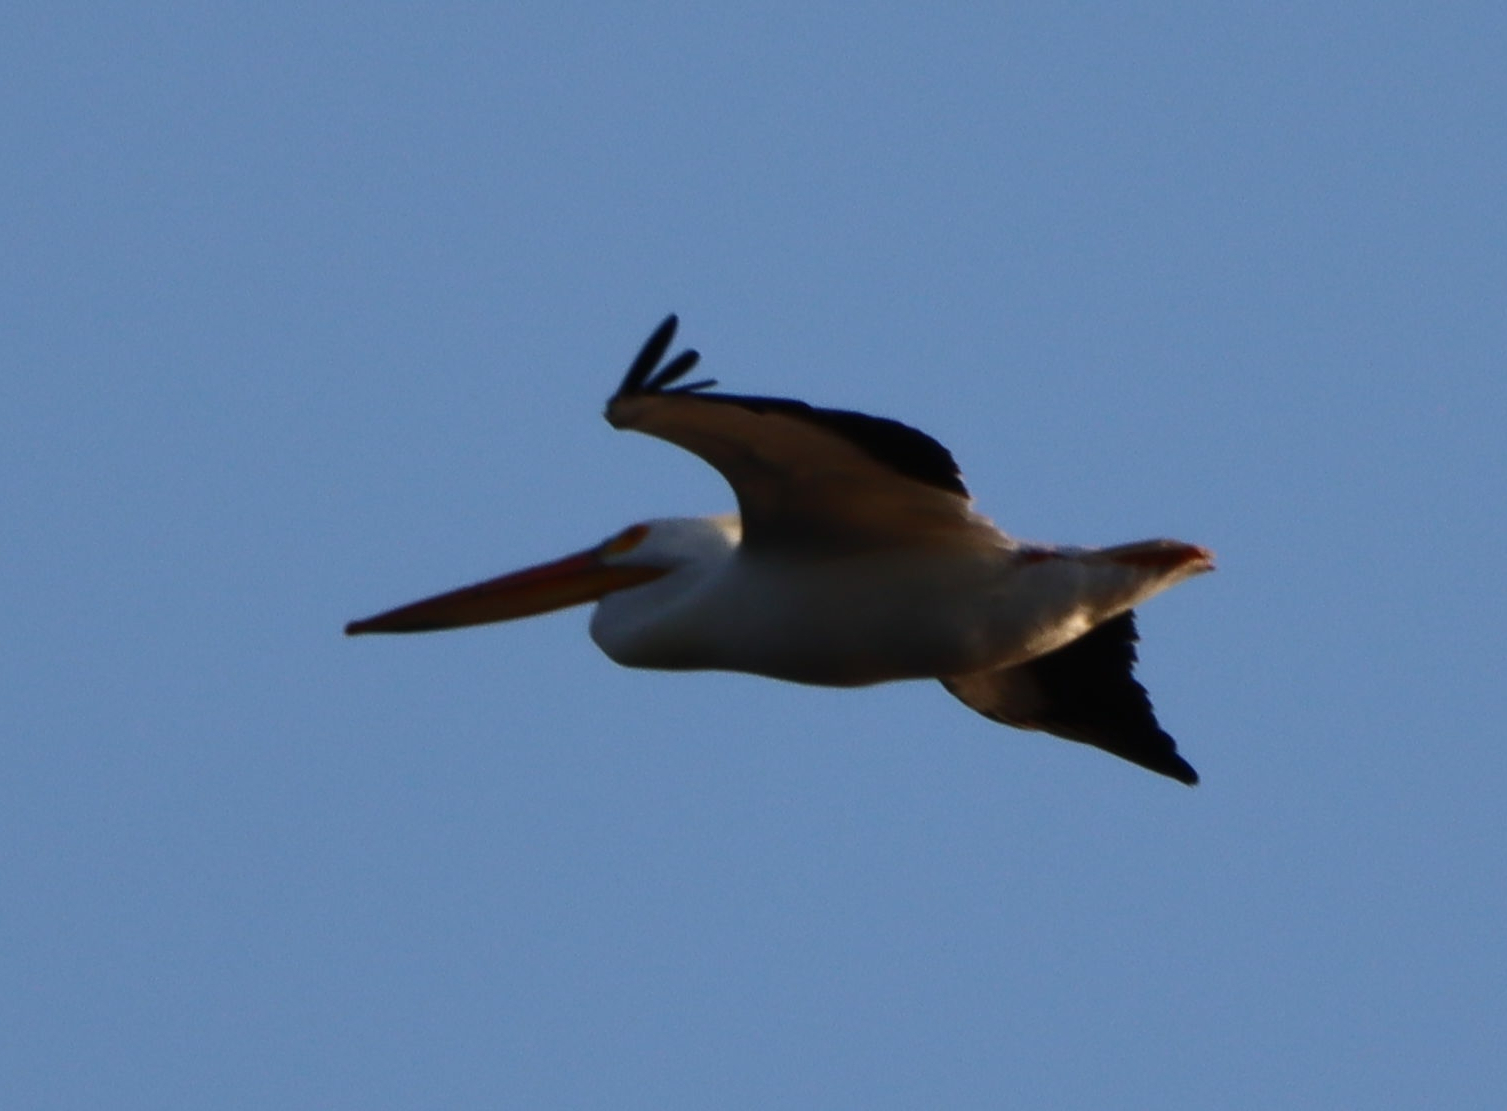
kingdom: Animalia
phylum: Chordata
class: Aves
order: Pelecaniformes
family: Pelecanidae
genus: Pelecanus
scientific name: Pelecanus erythrorhynchos
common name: American white pelican
